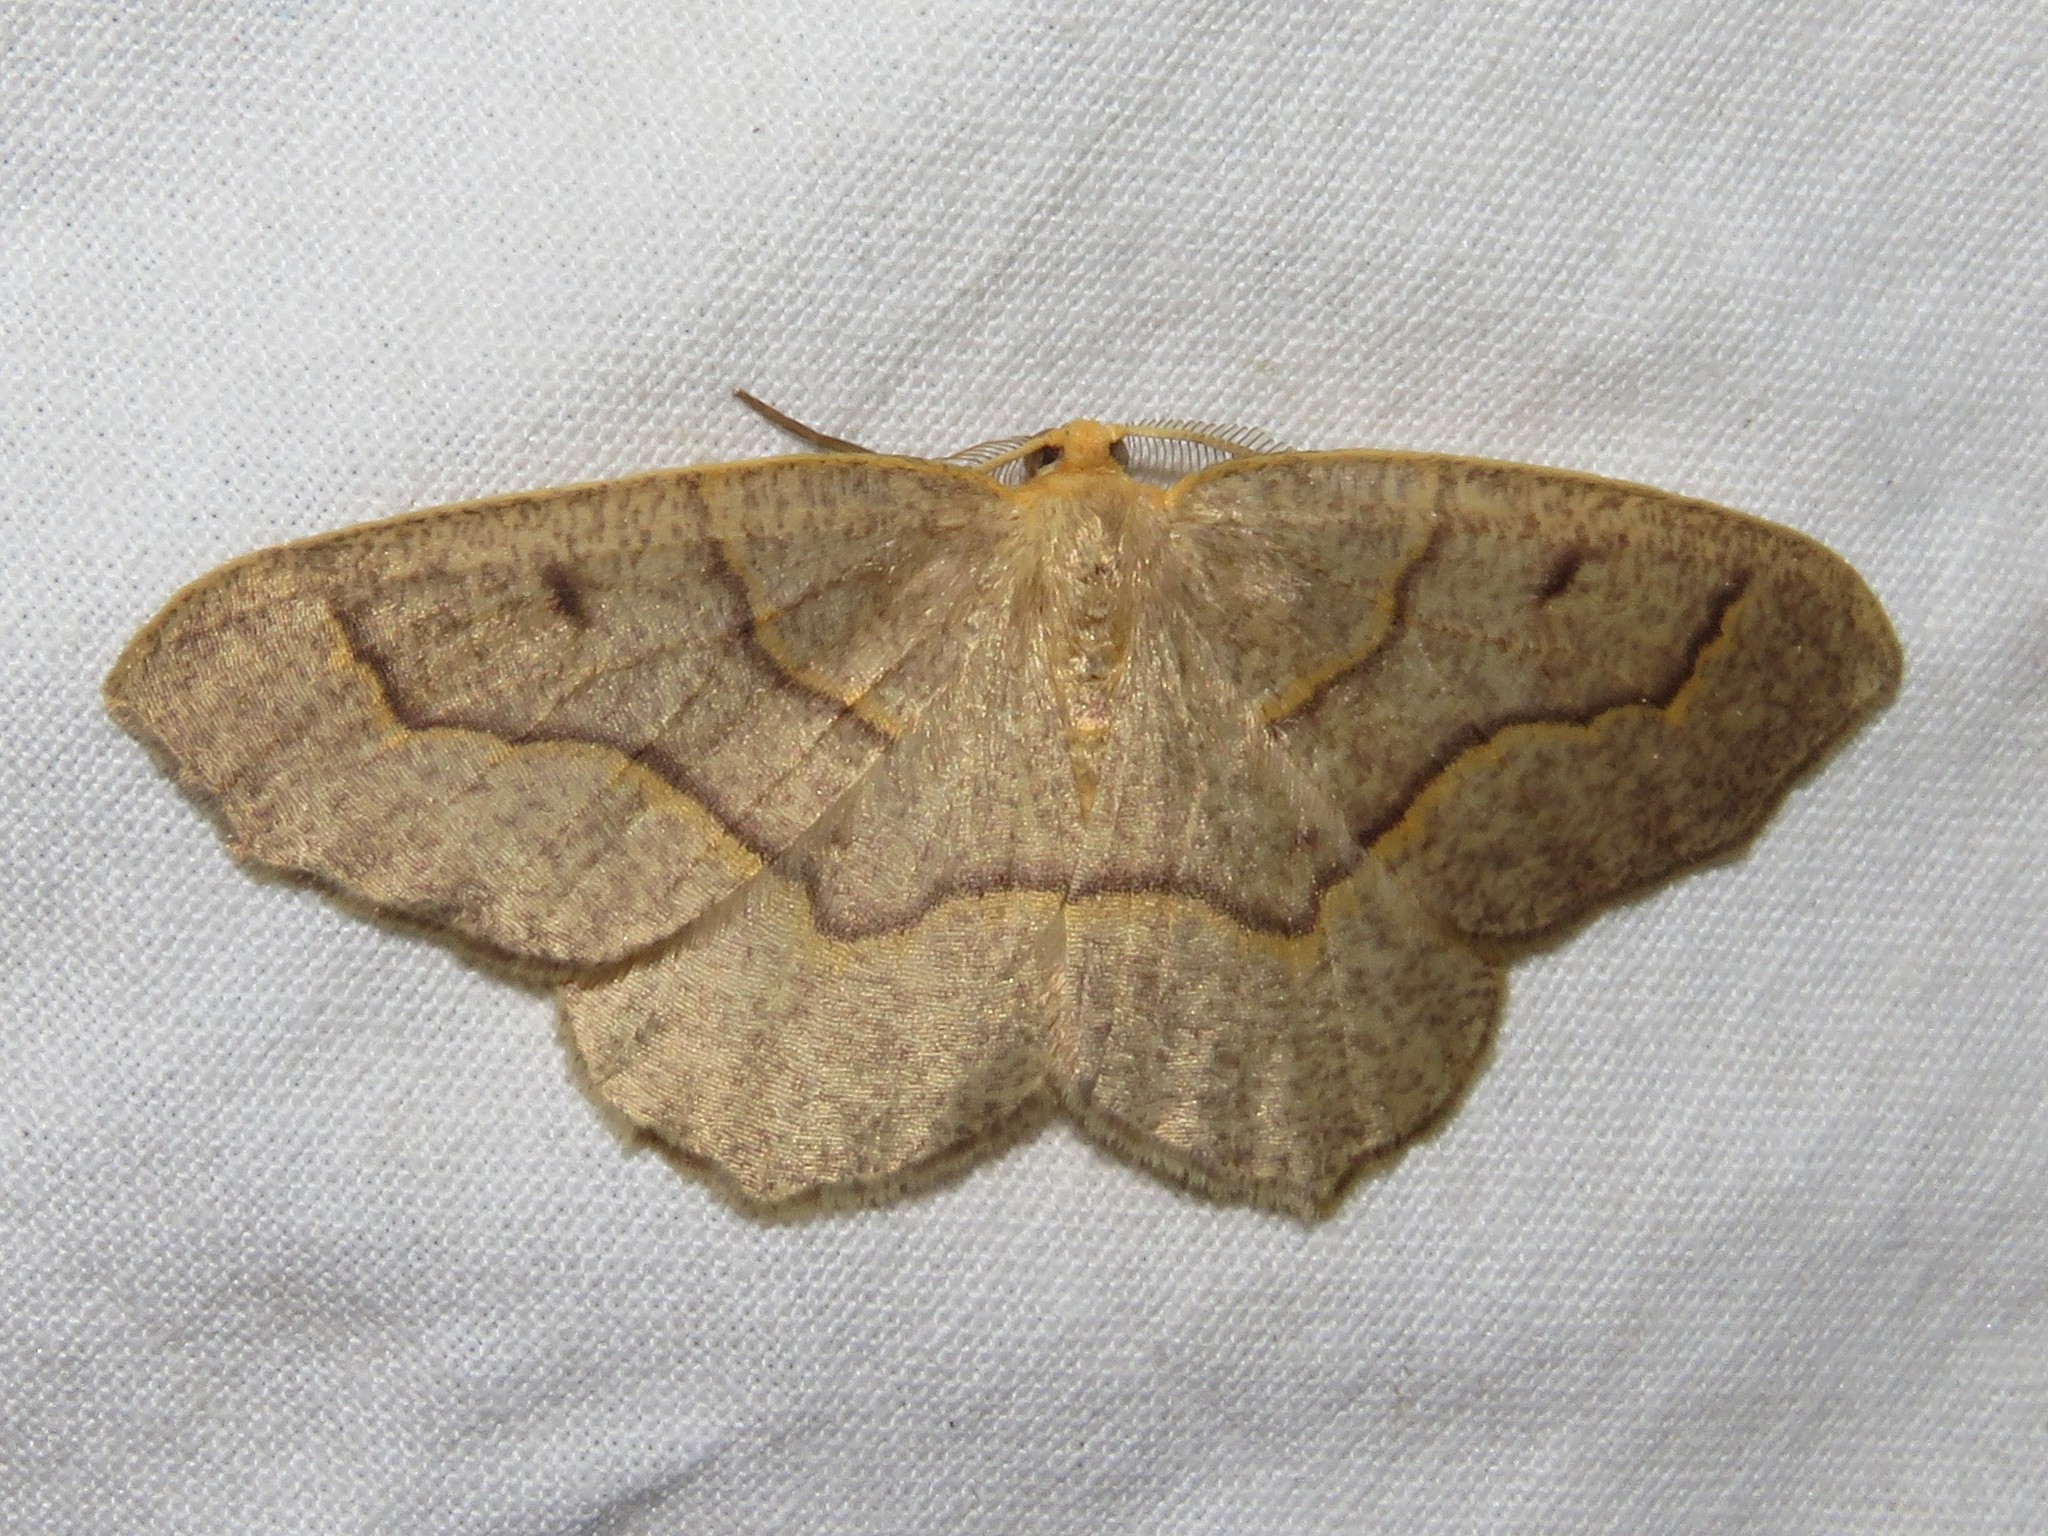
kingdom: Animalia
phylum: Arthropoda
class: Insecta
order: Lepidoptera
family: Geometridae
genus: Lambdina
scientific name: Lambdina fiscellaria
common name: Hemlock looper
